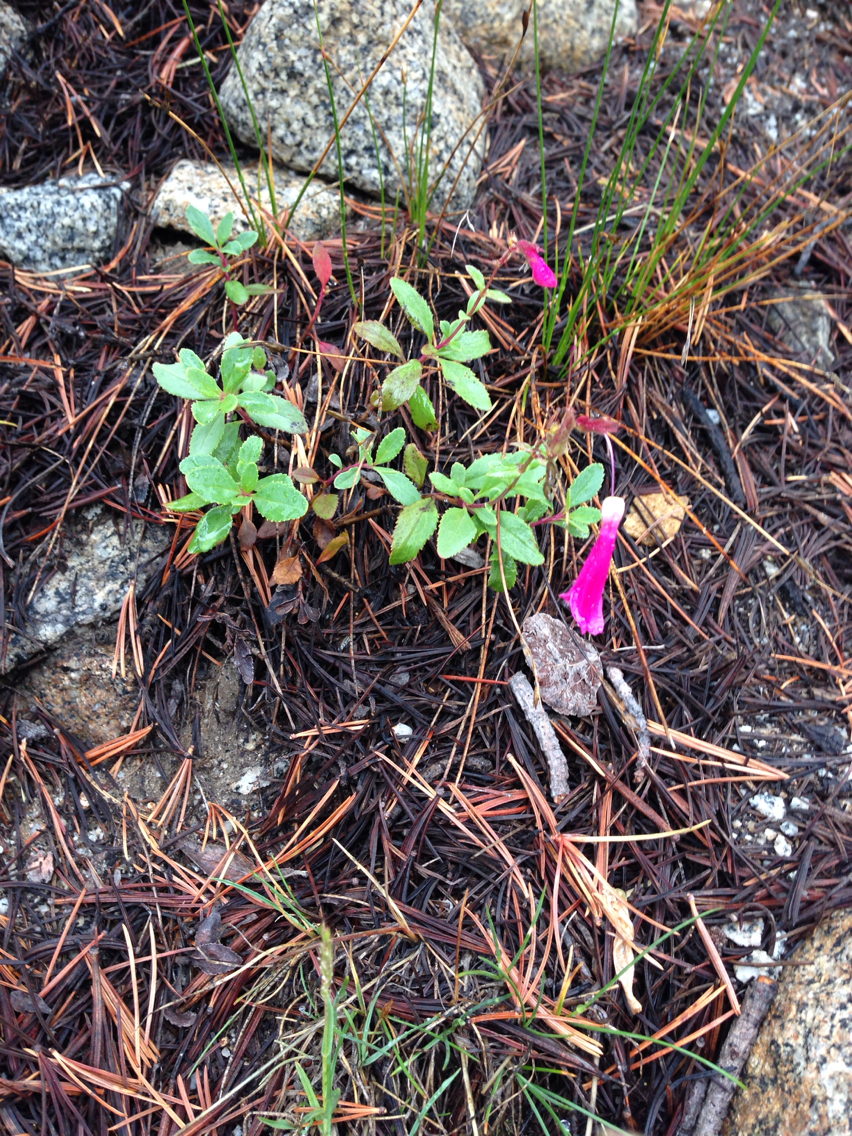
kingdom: Plantae
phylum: Tracheophyta
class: Magnoliopsida
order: Lamiales
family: Plantaginaceae
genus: Penstemon
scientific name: Penstemon newberryi
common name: Mountain-pride
